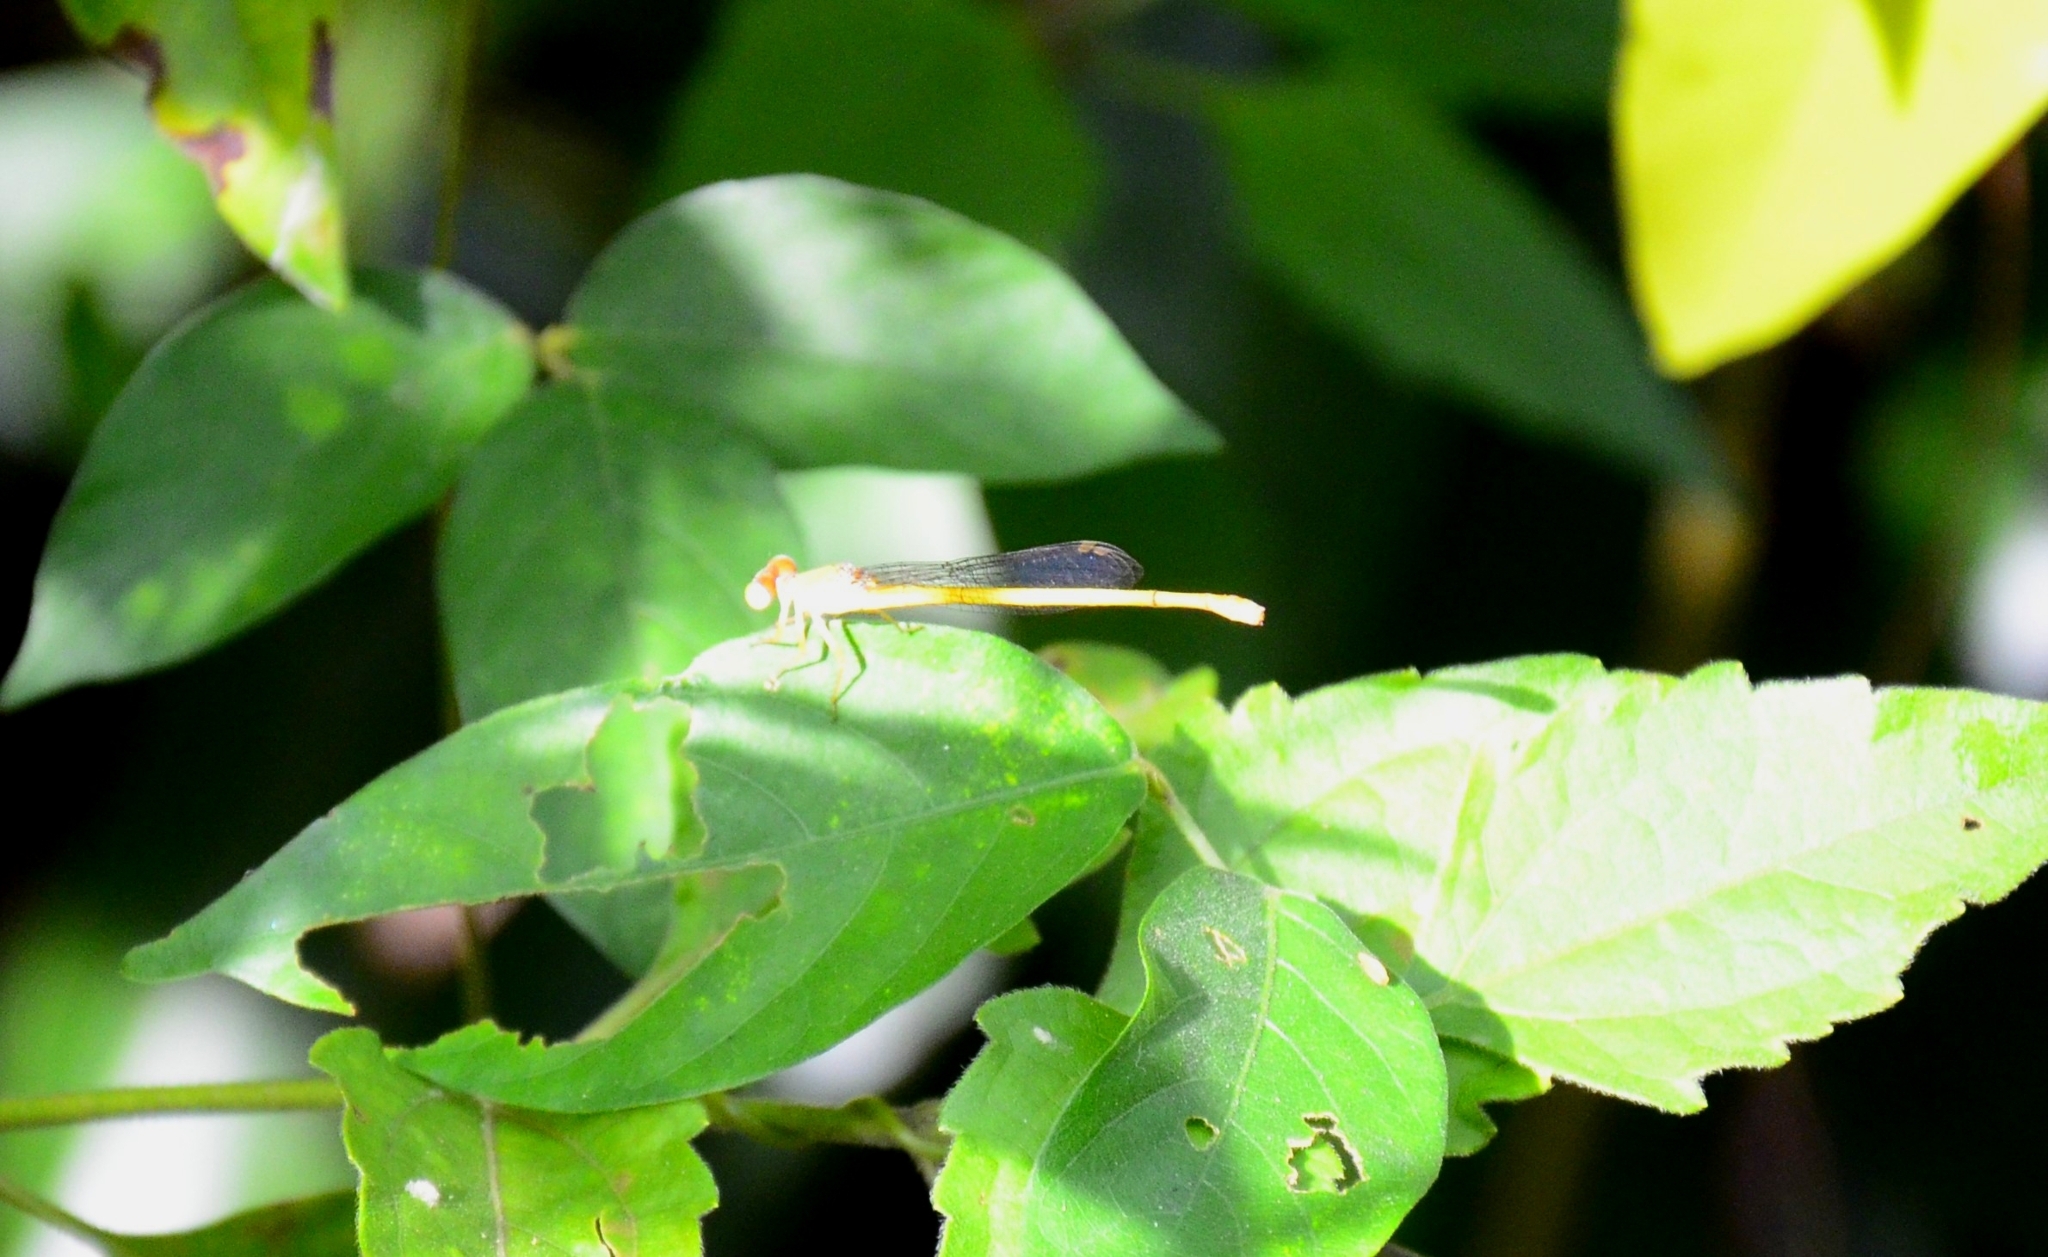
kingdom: Animalia
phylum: Arthropoda
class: Insecta
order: Odonata
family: Coenagrionidae
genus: Ceriagrion
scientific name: Ceriagrion coromandelianum
